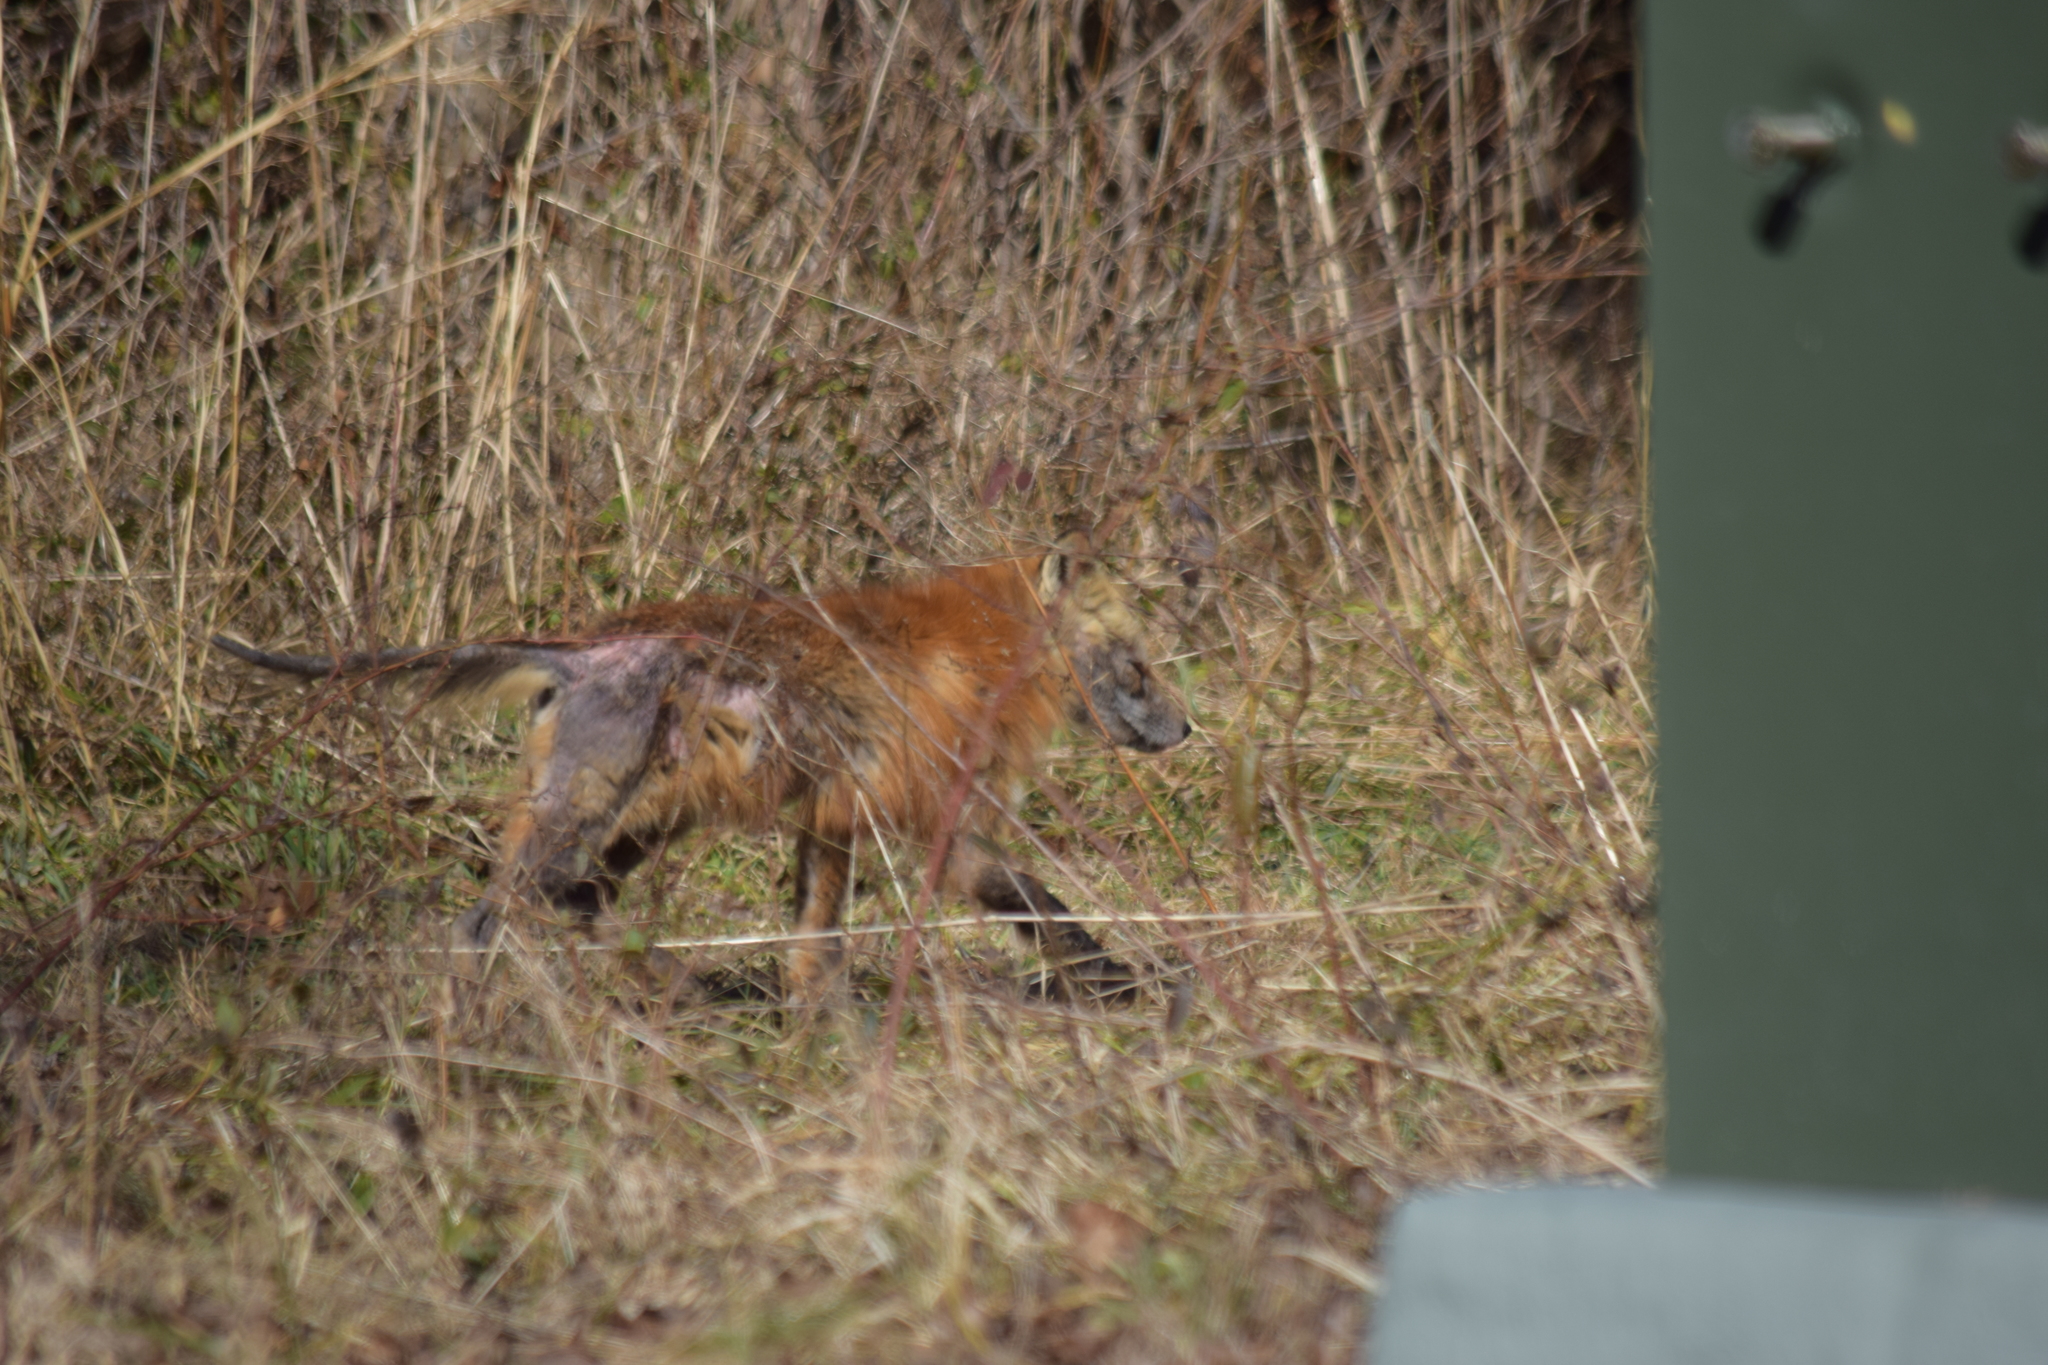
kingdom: Animalia
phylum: Chordata
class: Mammalia
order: Carnivora
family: Canidae
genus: Vulpes
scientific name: Vulpes vulpes
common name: Red fox
